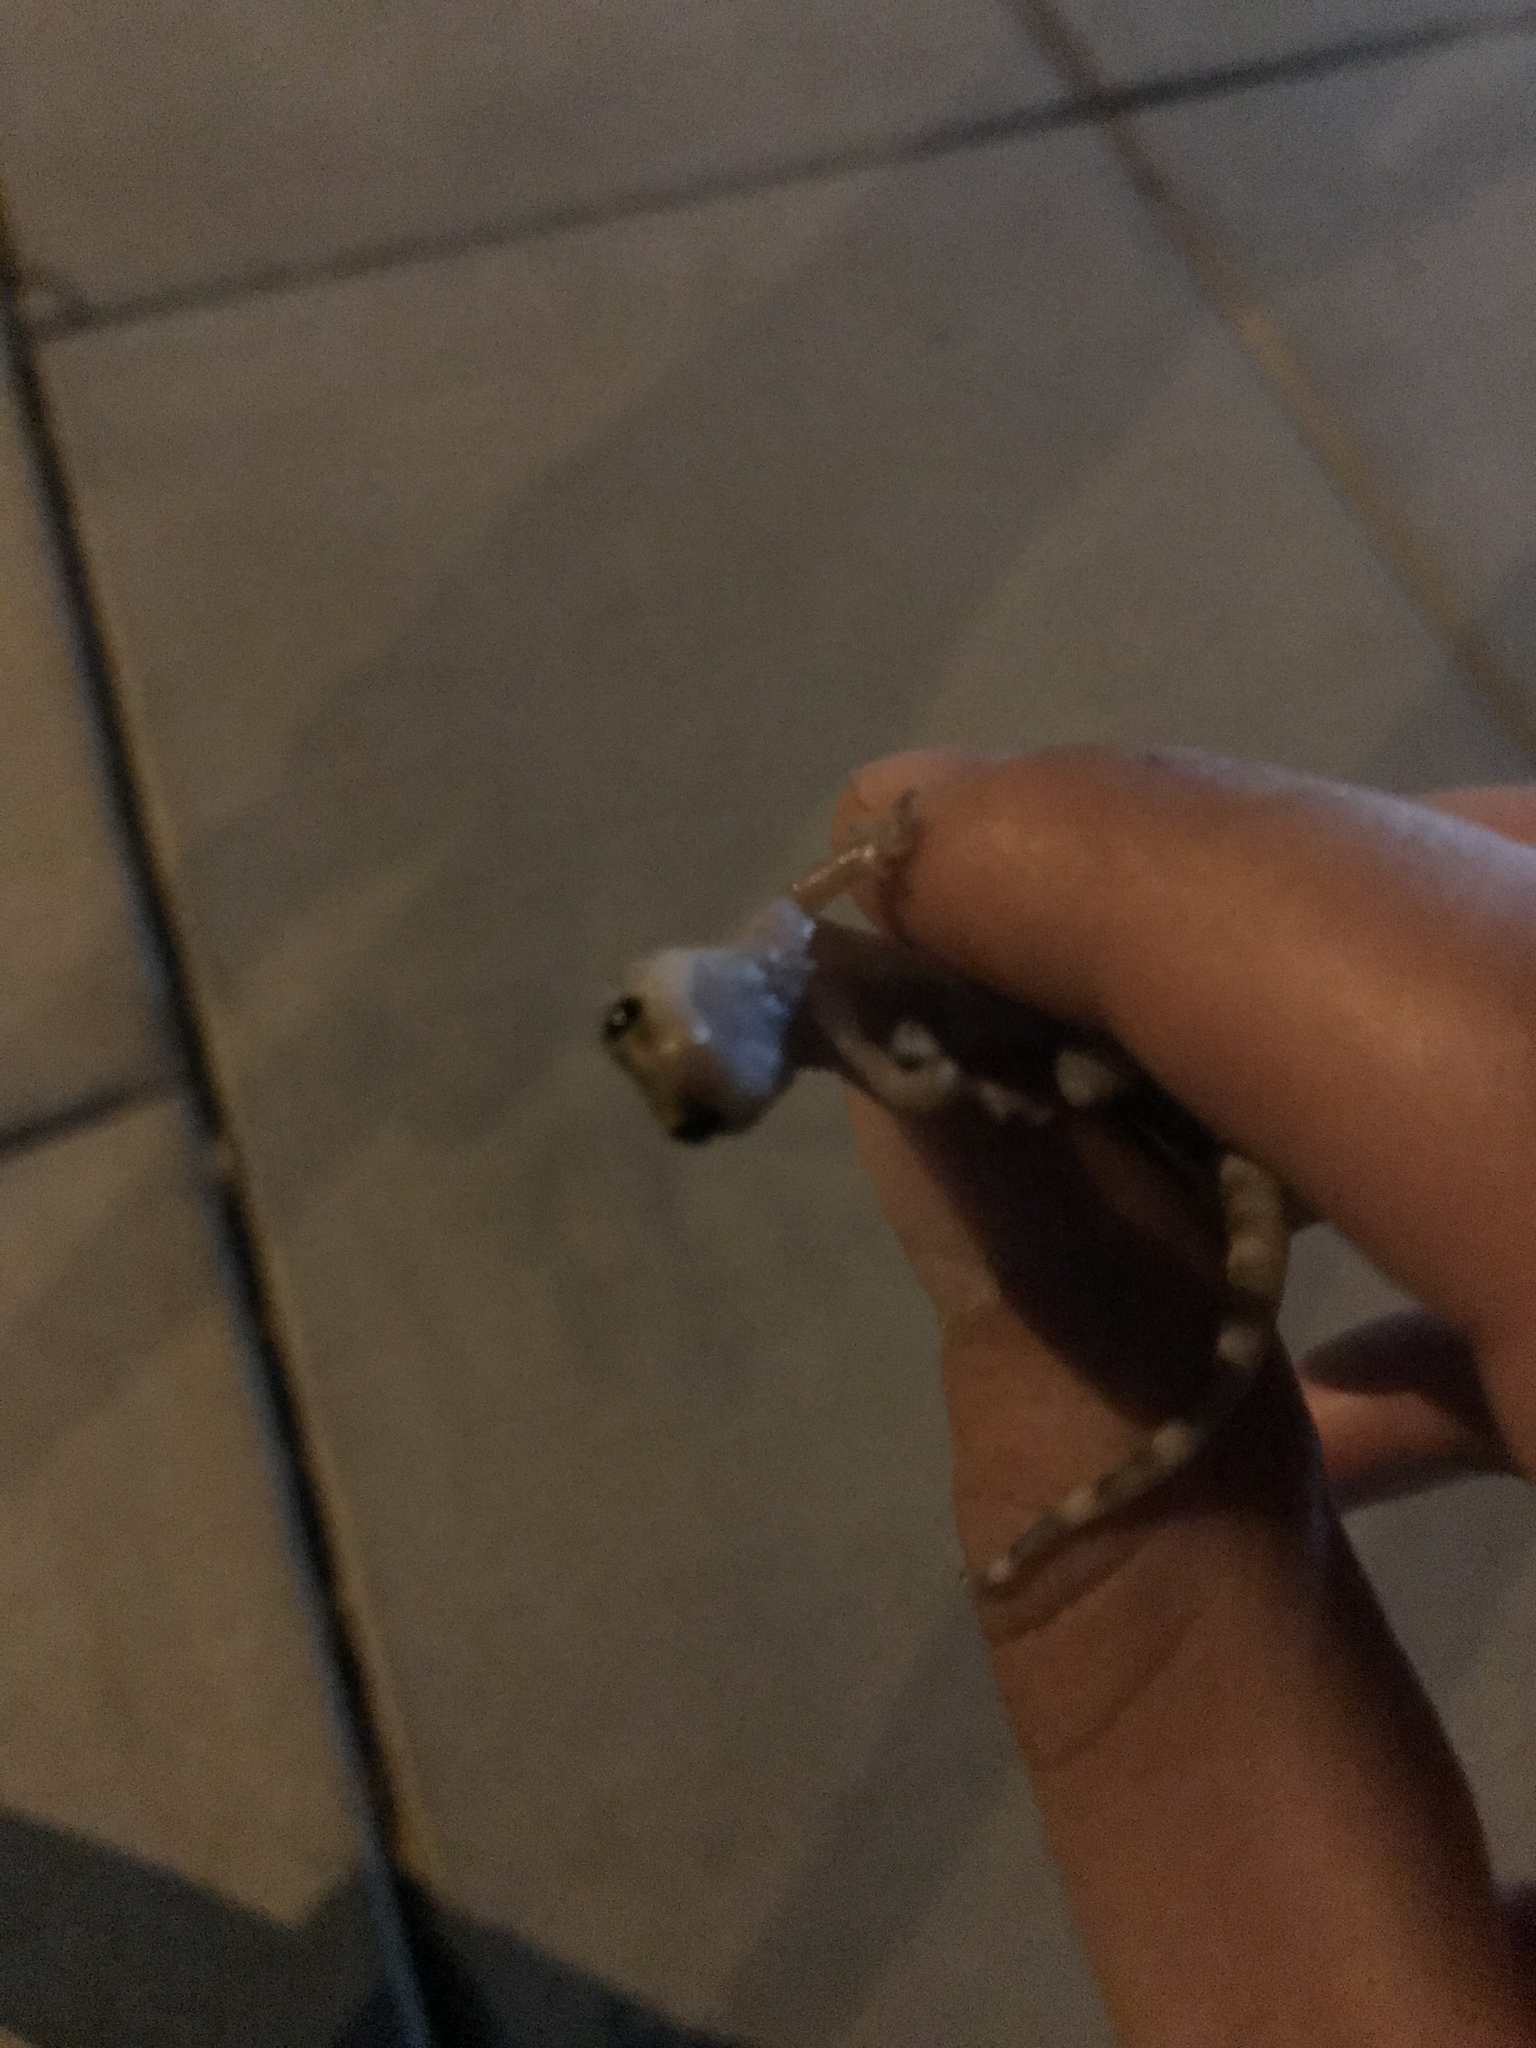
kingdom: Animalia
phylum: Chordata
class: Squamata
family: Gekkonidae
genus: Hemidactylus
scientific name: Hemidactylus turcicus
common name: Turkish gecko
